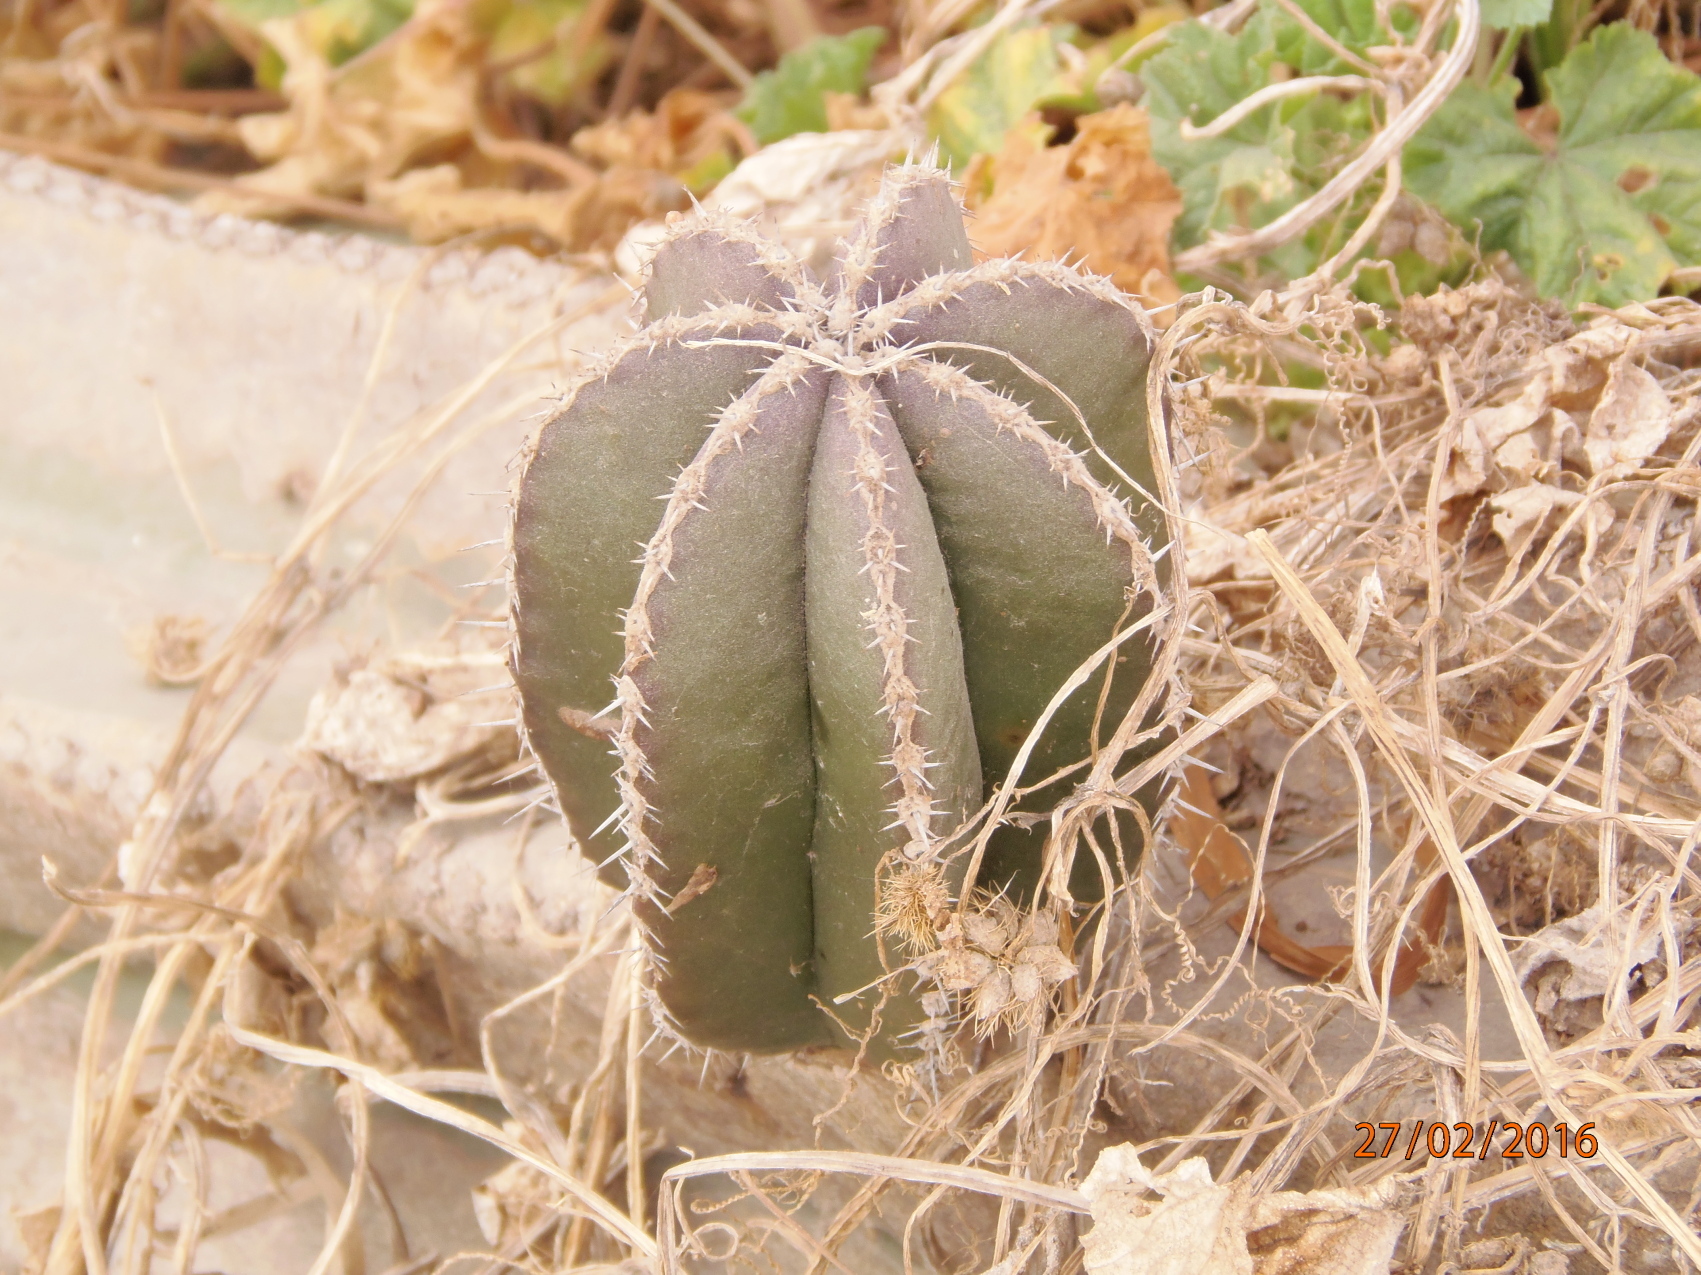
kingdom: Plantae
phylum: Tracheophyta
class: Magnoliopsida
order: Caryophyllales
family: Cactaceae
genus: Marginatocereus
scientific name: Marginatocereus marginatus
